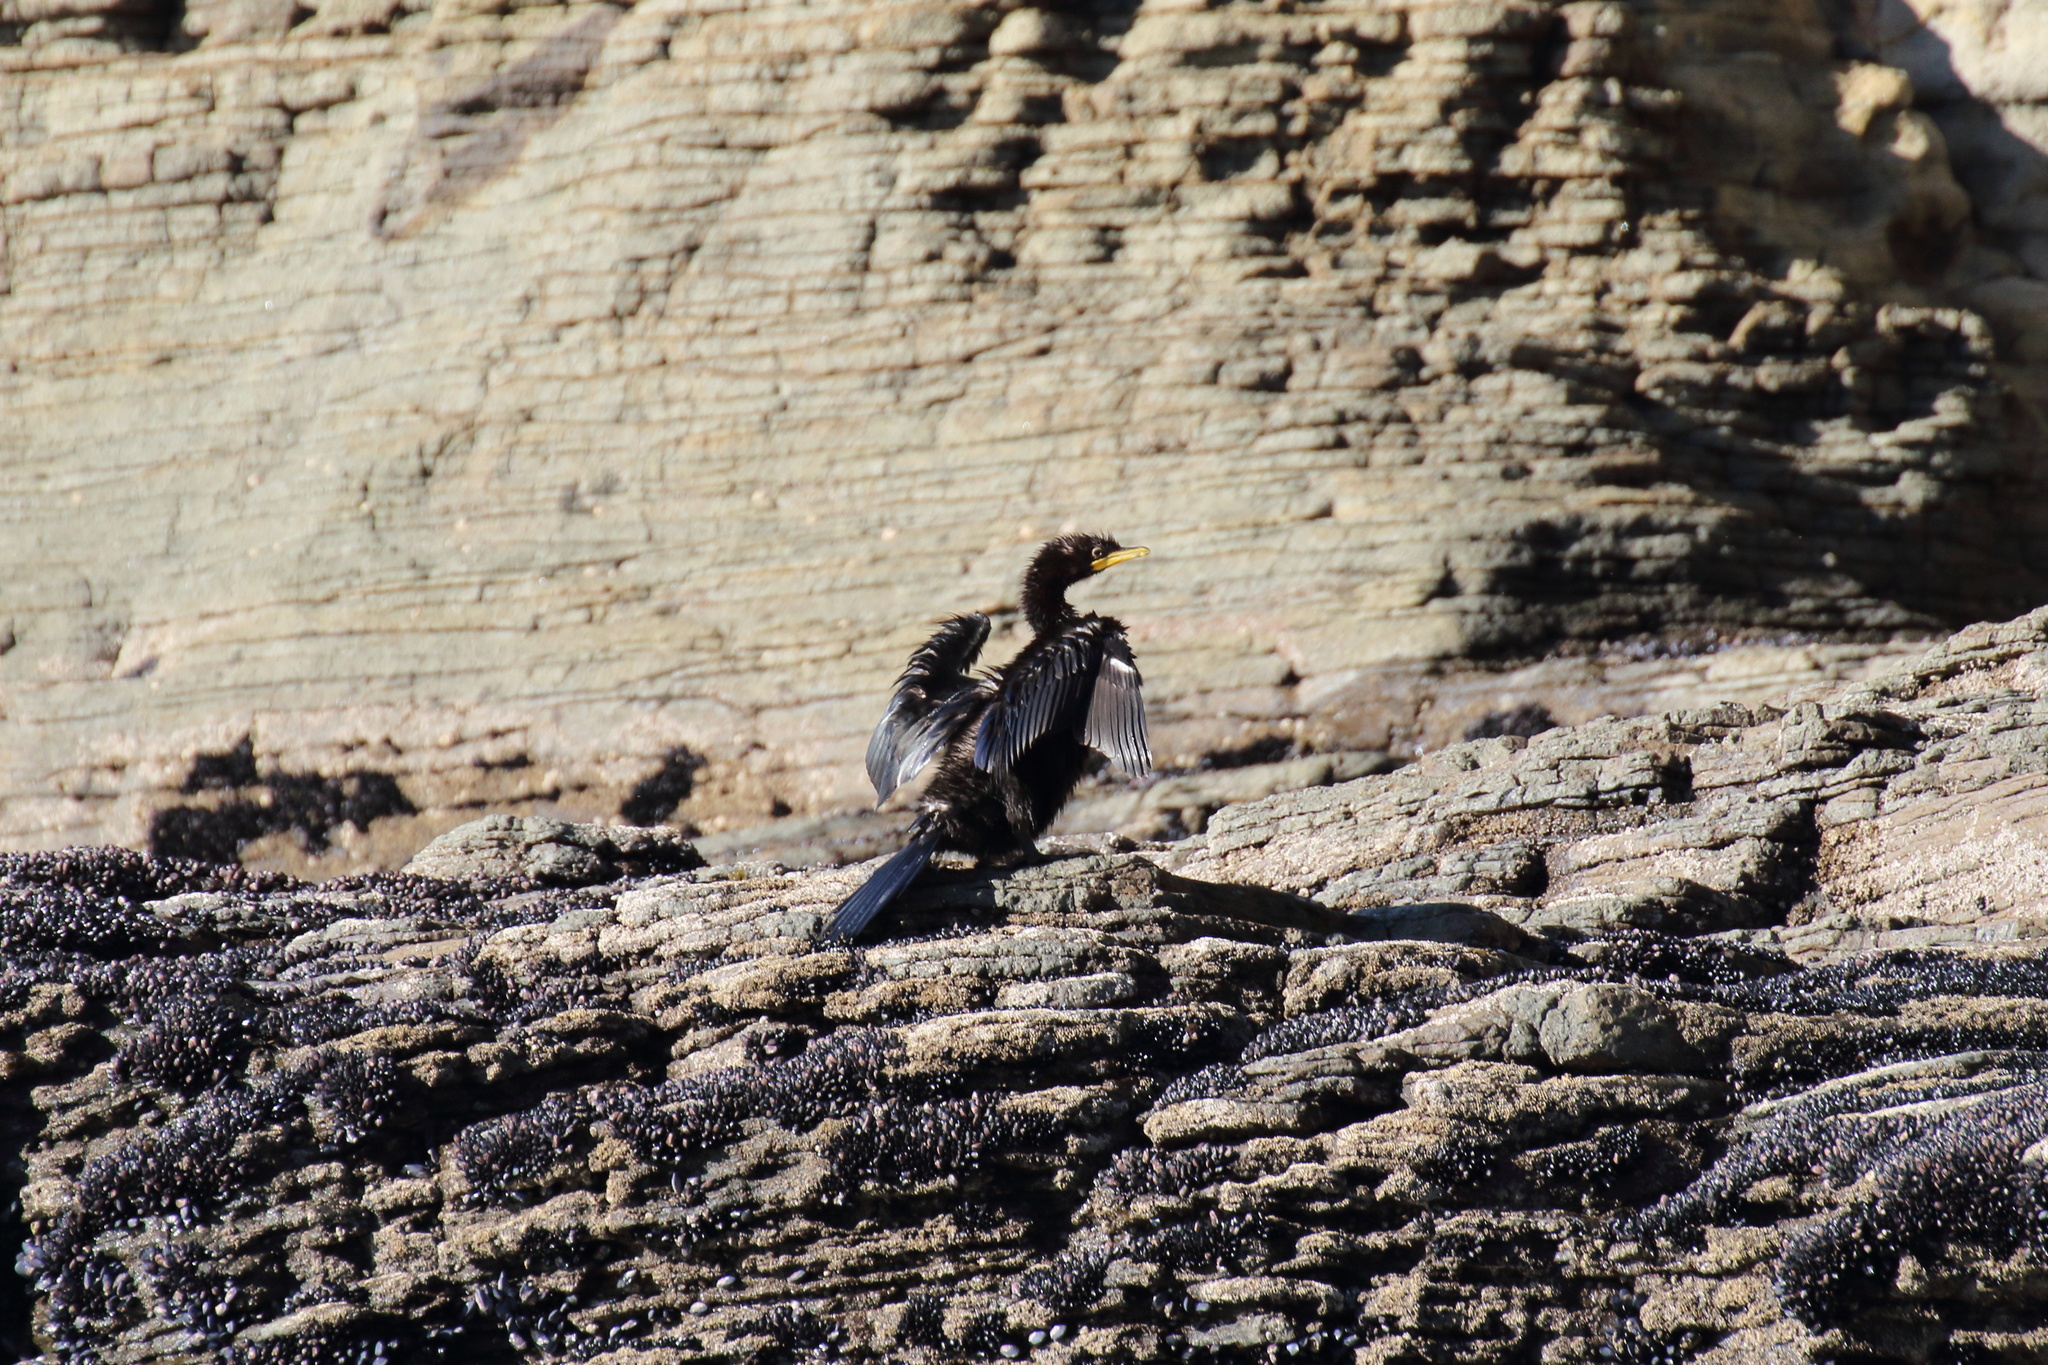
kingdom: Animalia
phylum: Chordata
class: Aves
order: Suliformes
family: Phalacrocoracidae
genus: Microcarbo
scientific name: Microcarbo melanoleucos
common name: Little pied cormorant
